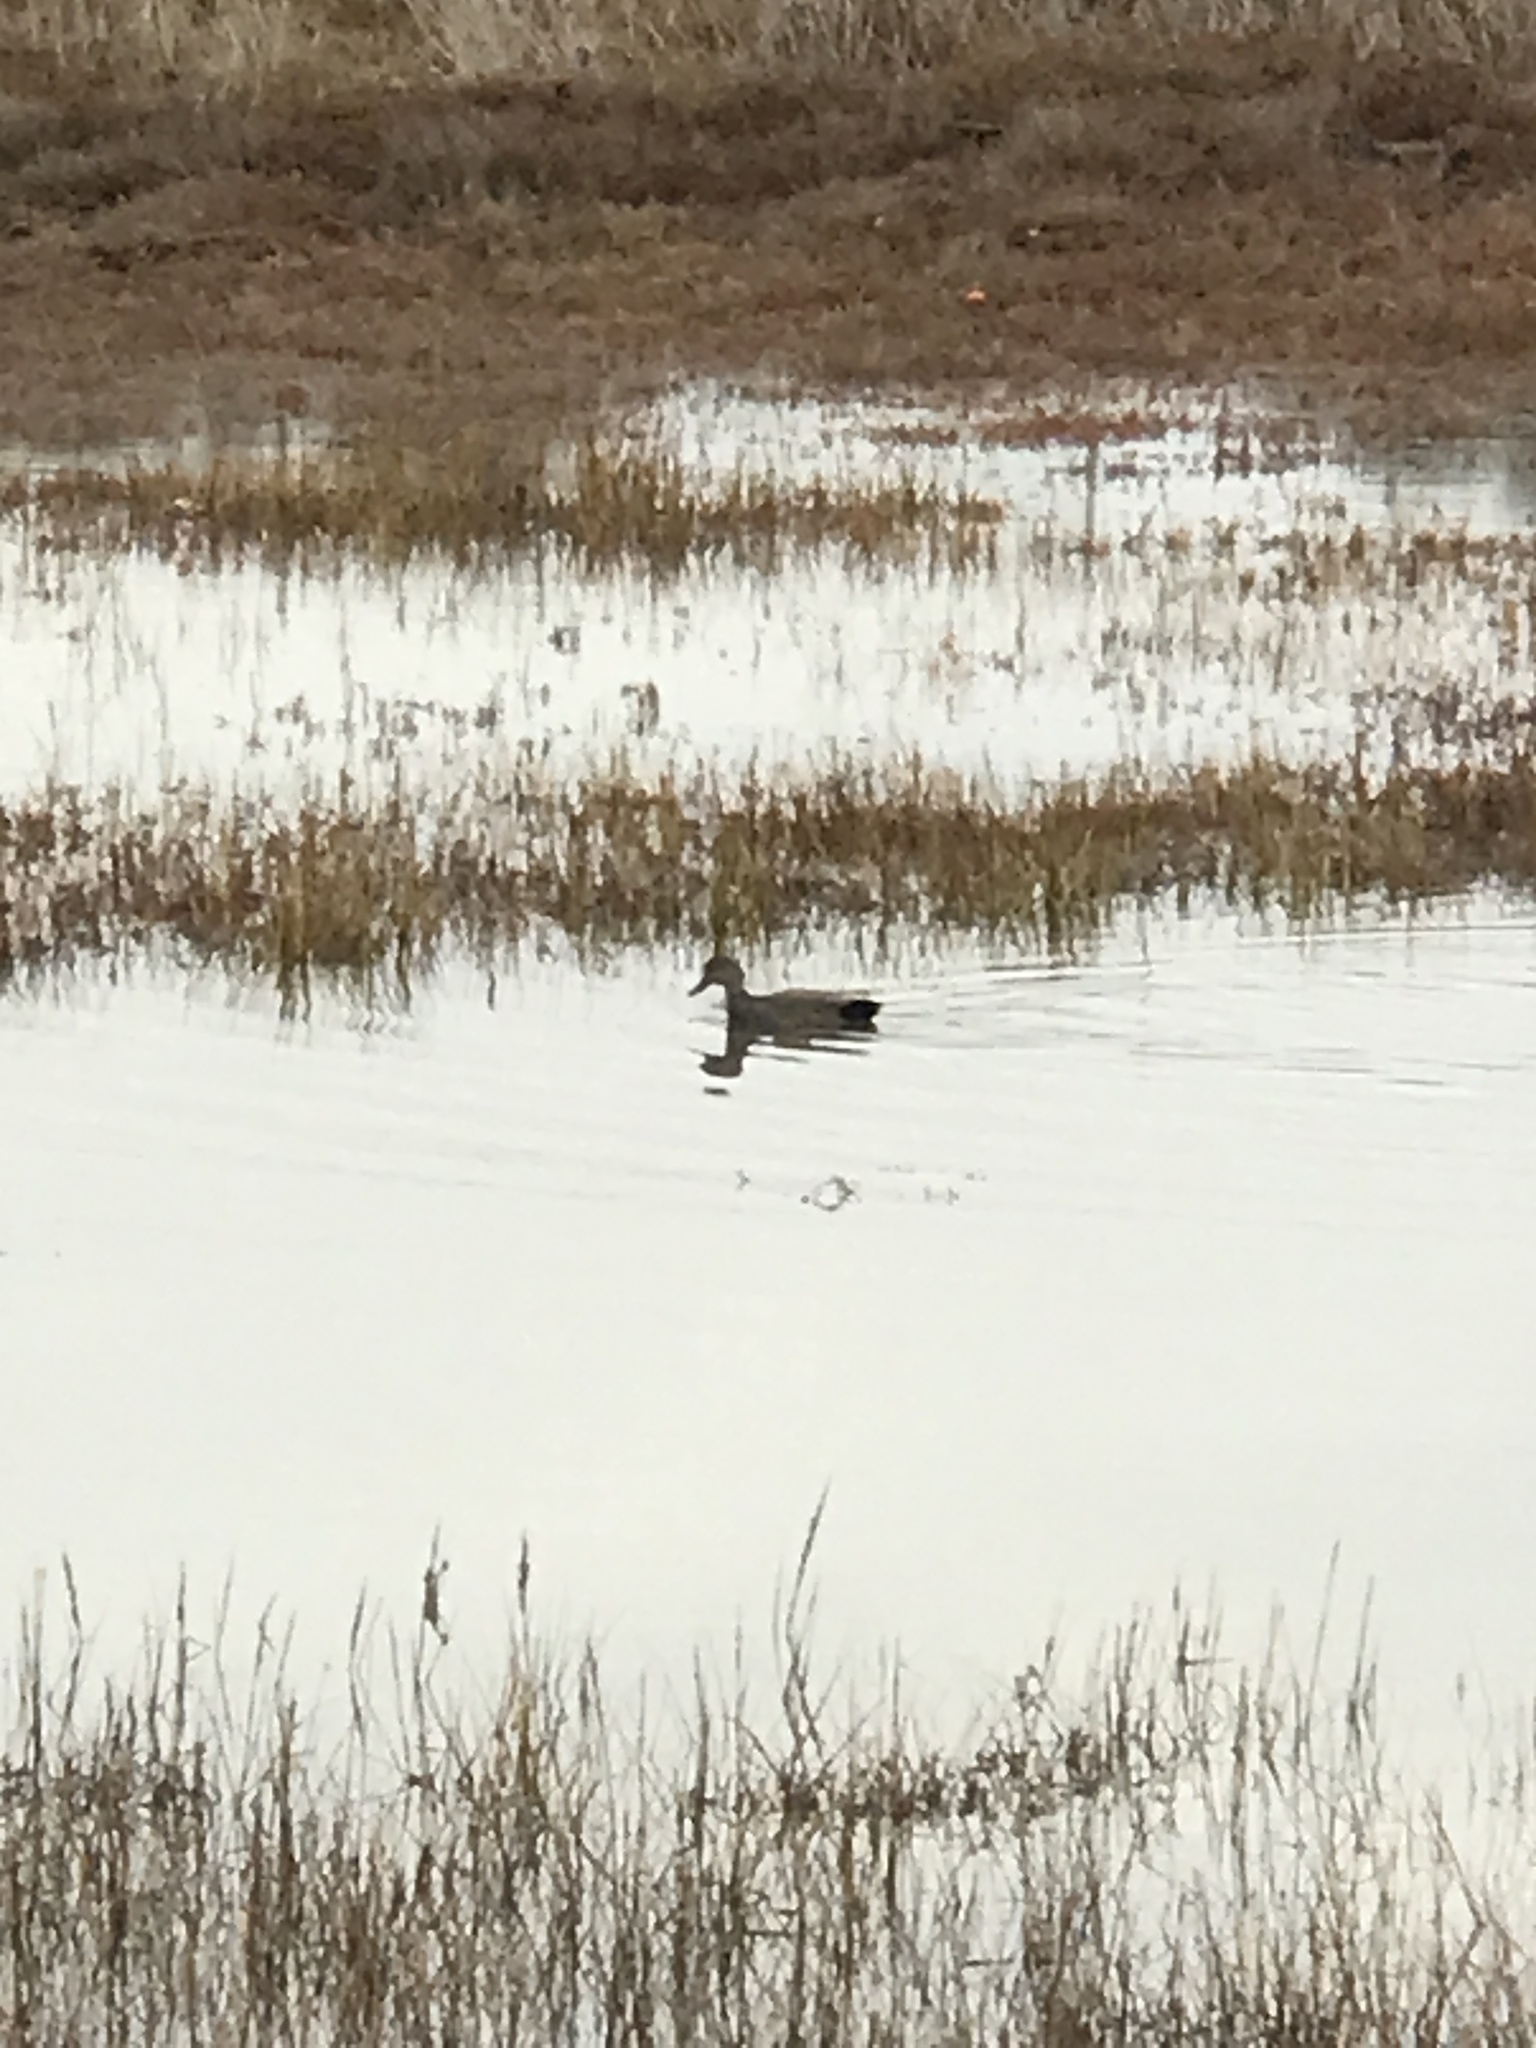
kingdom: Animalia
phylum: Chordata
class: Aves
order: Anseriformes
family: Anatidae
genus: Mareca
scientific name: Mareca strepera
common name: Gadwall
